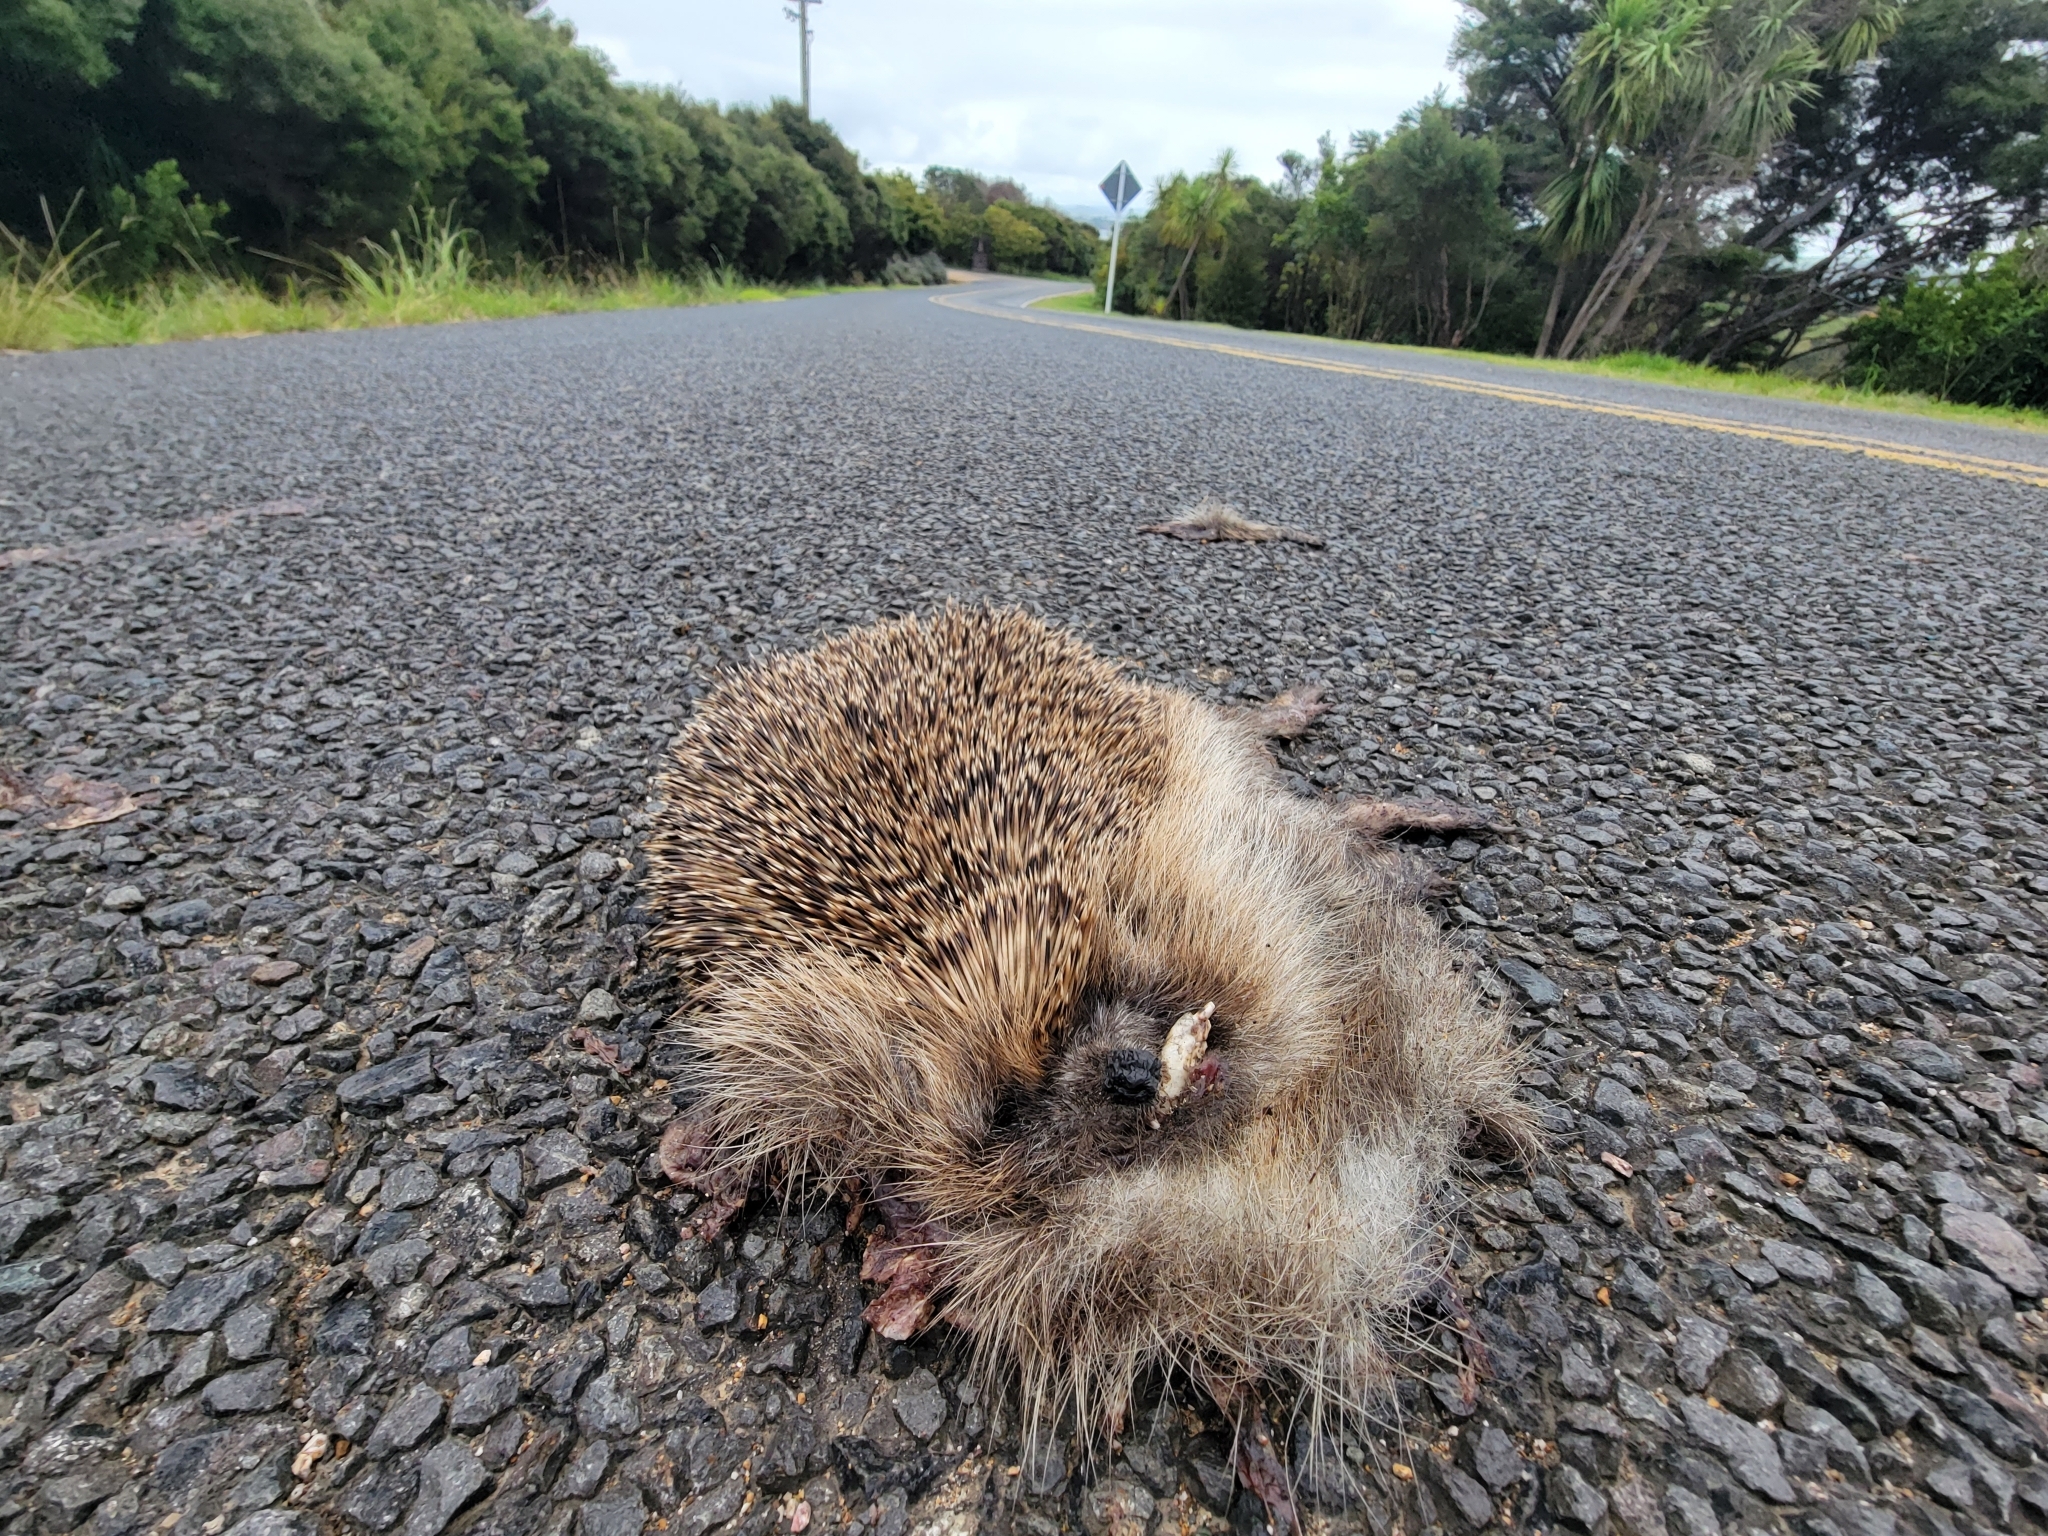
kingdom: Animalia
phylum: Chordata
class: Mammalia
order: Erinaceomorpha
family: Erinaceidae
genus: Erinaceus
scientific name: Erinaceus europaeus
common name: West european hedgehog
